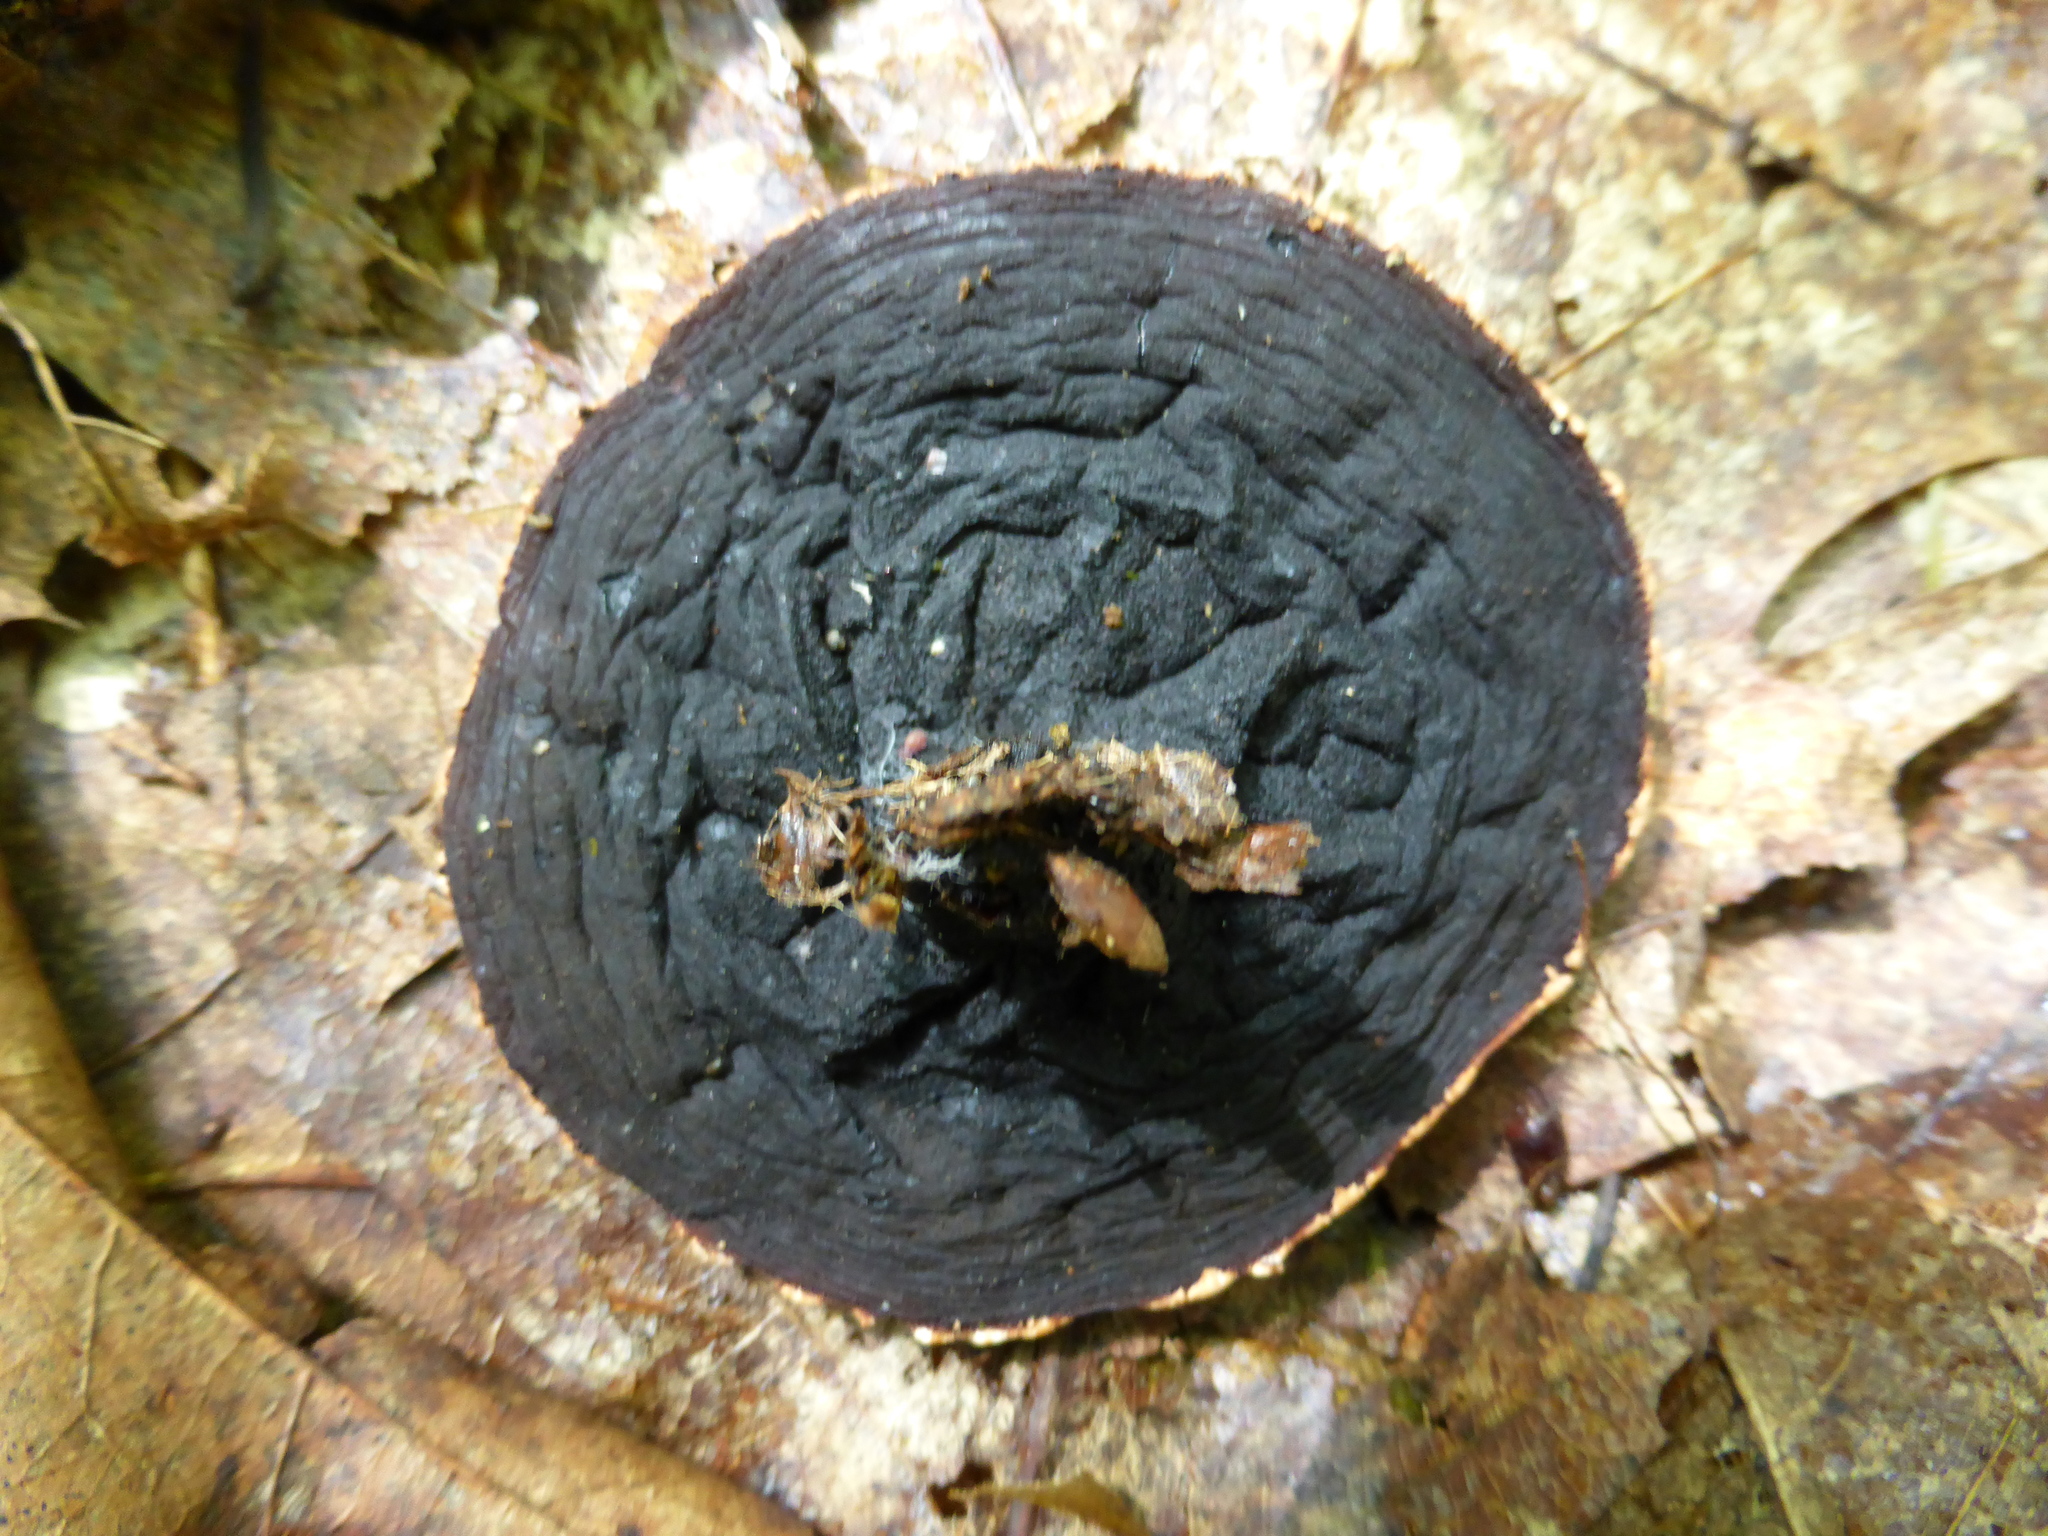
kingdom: Fungi
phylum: Ascomycota
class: Pezizomycetes
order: Pezizales
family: Sarcosomataceae
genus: Galiella
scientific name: Galiella rufa
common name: Hairy rubber cup
